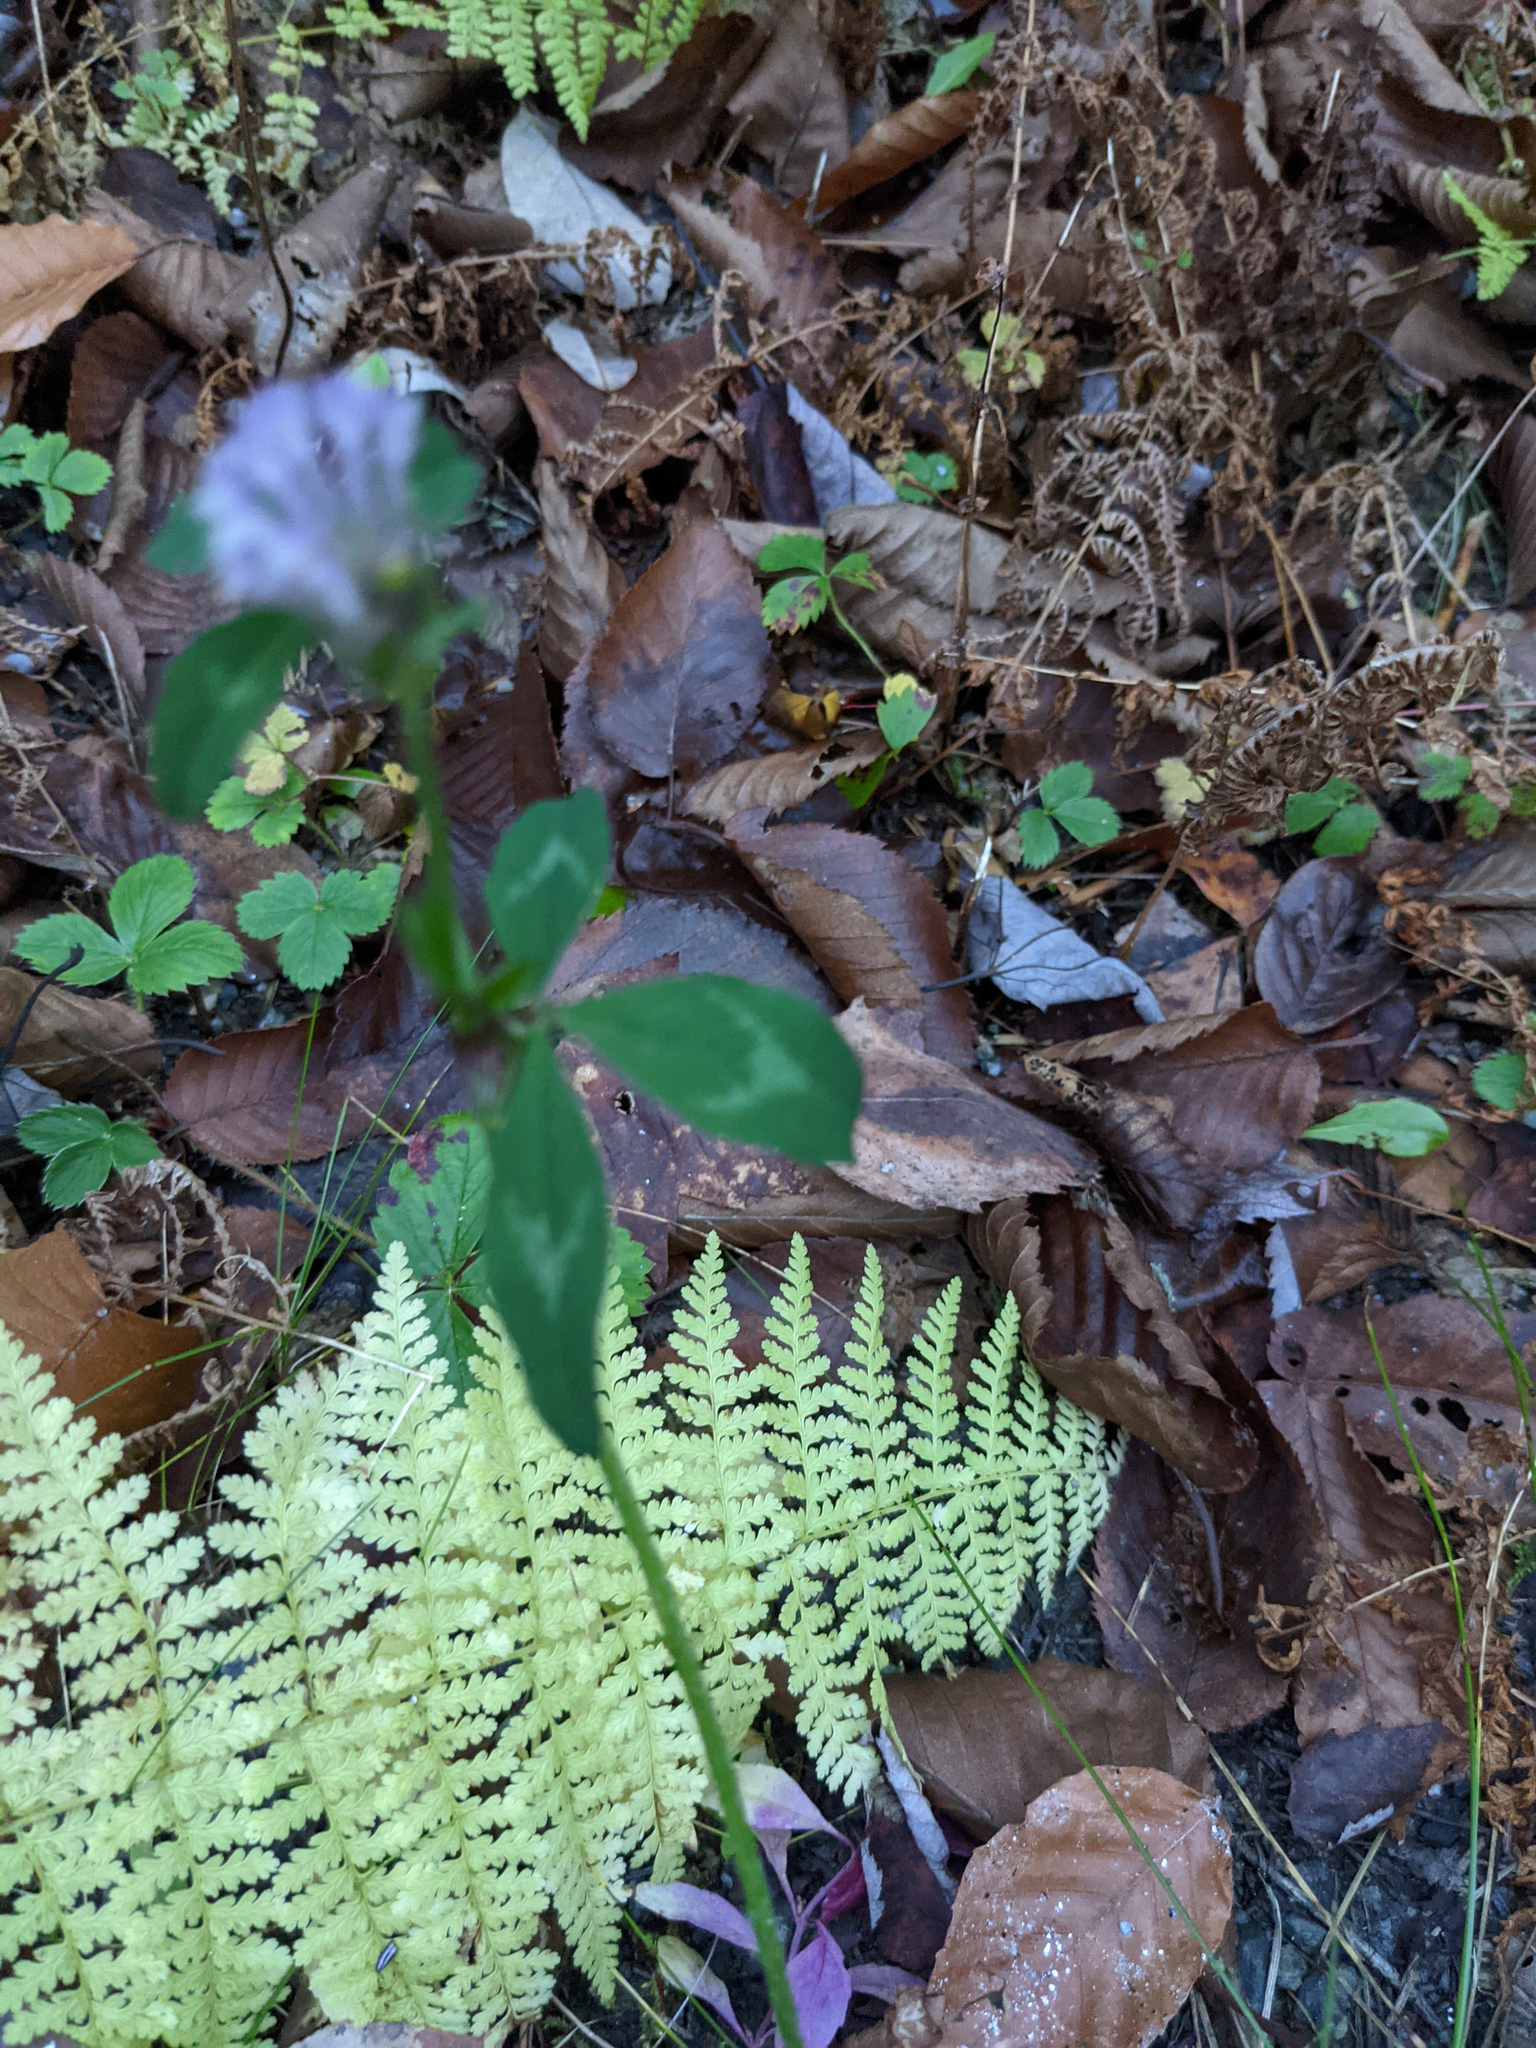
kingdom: Plantae
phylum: Tracheophyta
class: Magnoliopsida
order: Fabales
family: Fabaceae
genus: Trifolium
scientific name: Trifolium pratense
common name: Red clover
